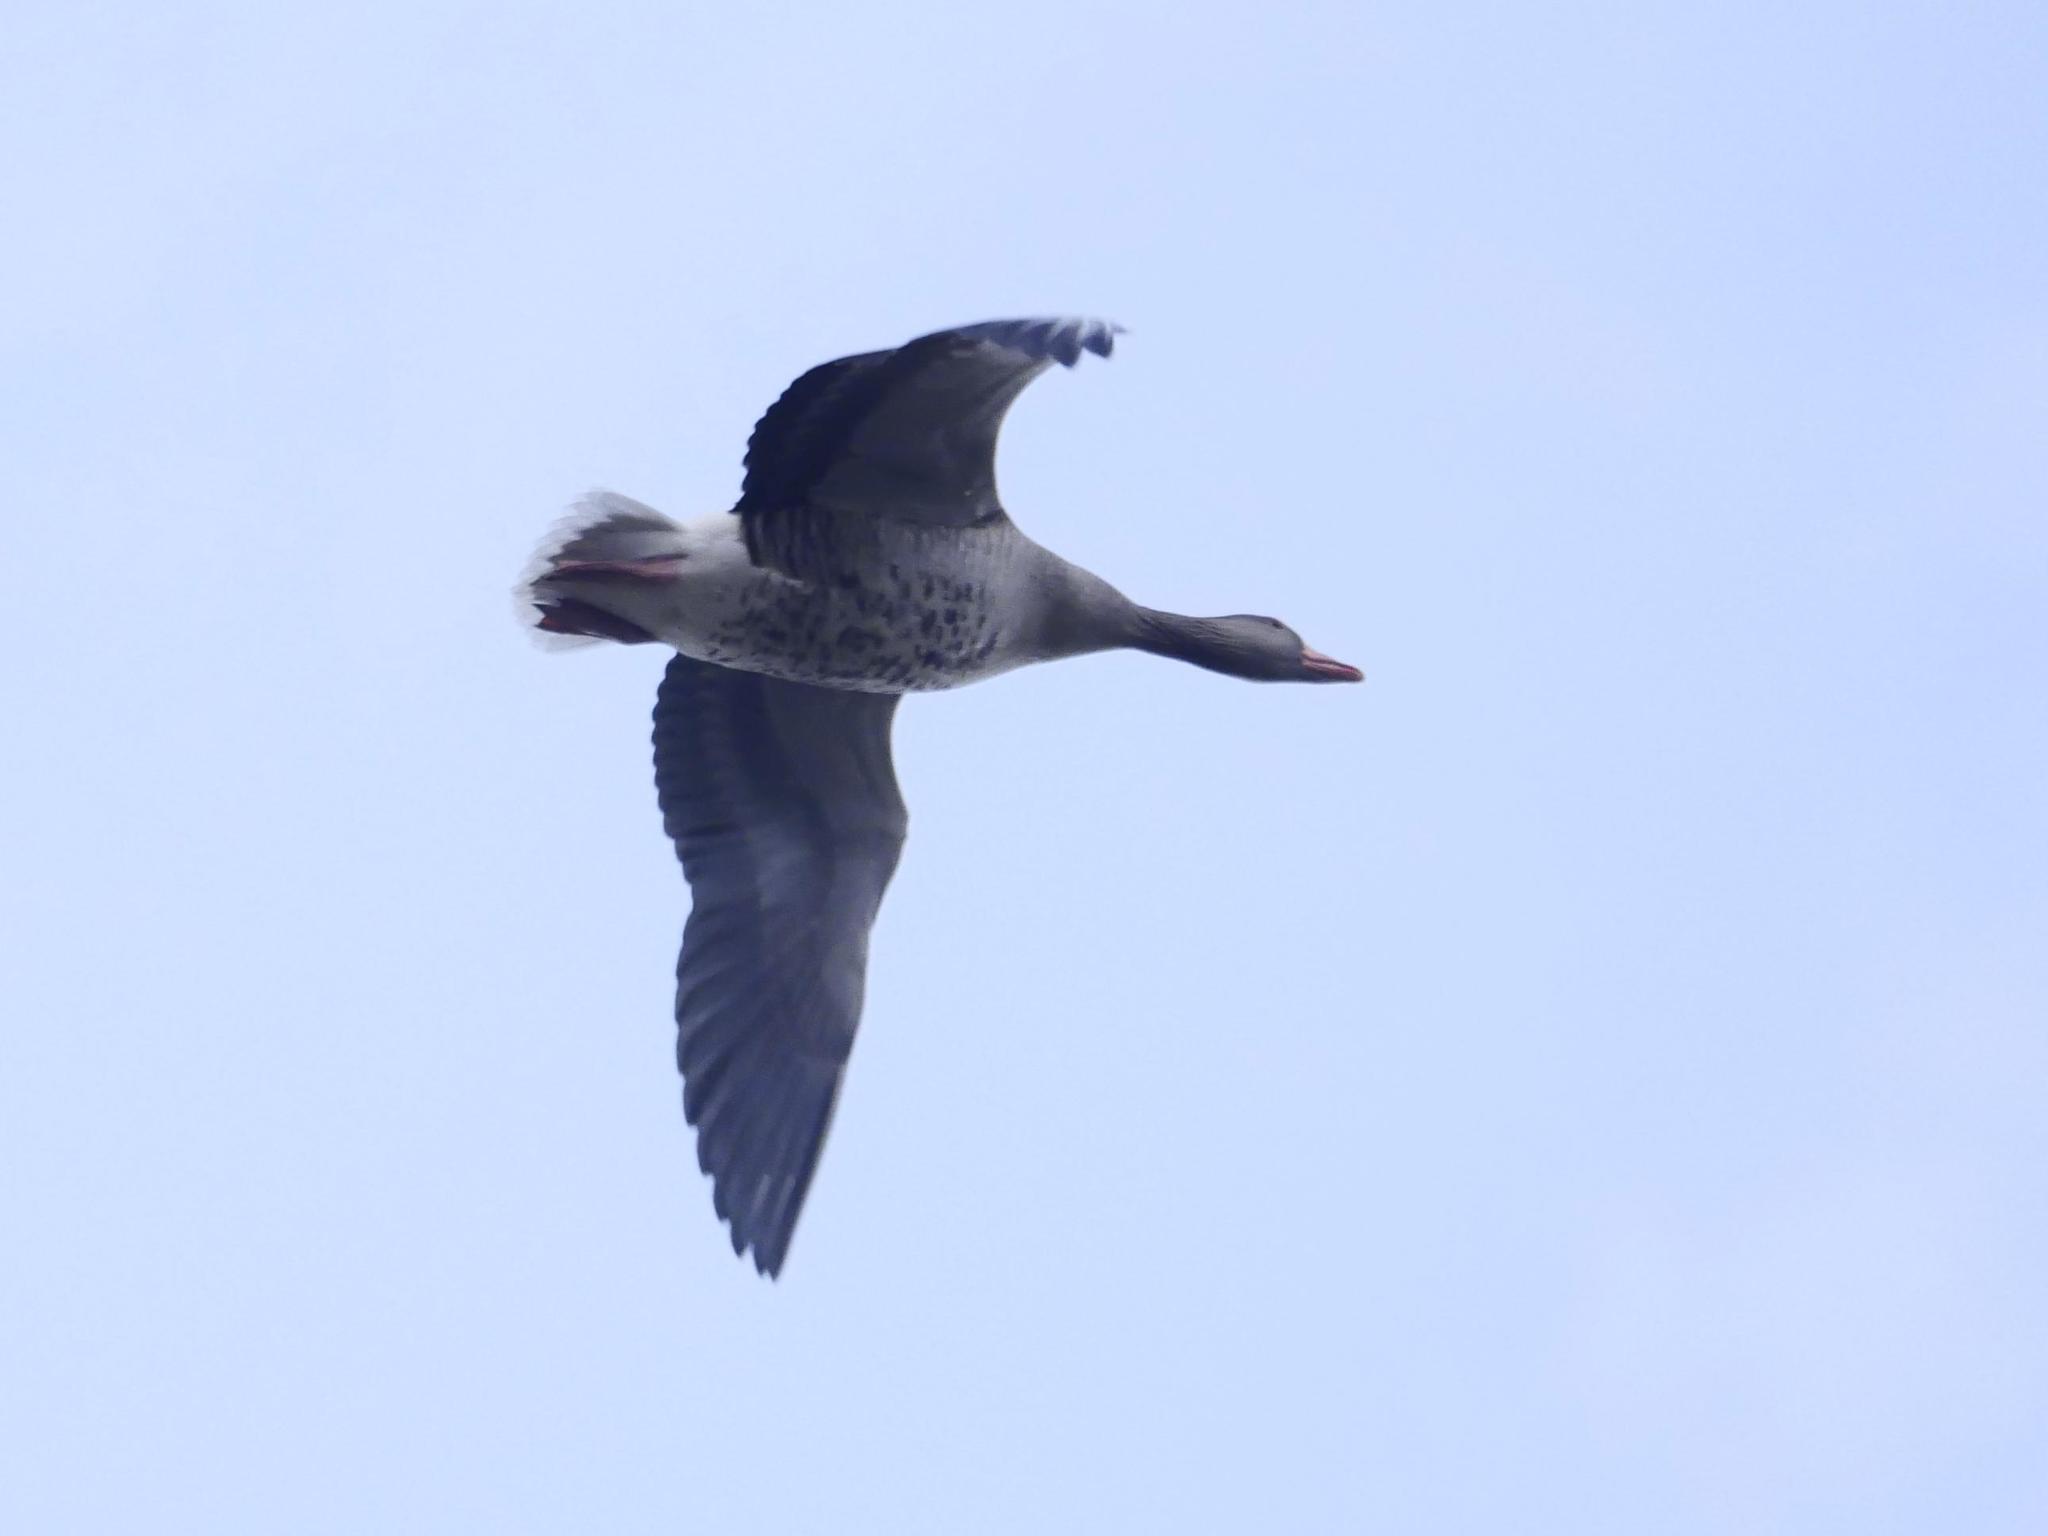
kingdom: Animalia
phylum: Chordata
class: Aves
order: Anseriformes
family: Anatidae
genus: Anser
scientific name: Anser anser
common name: Greylag goose
